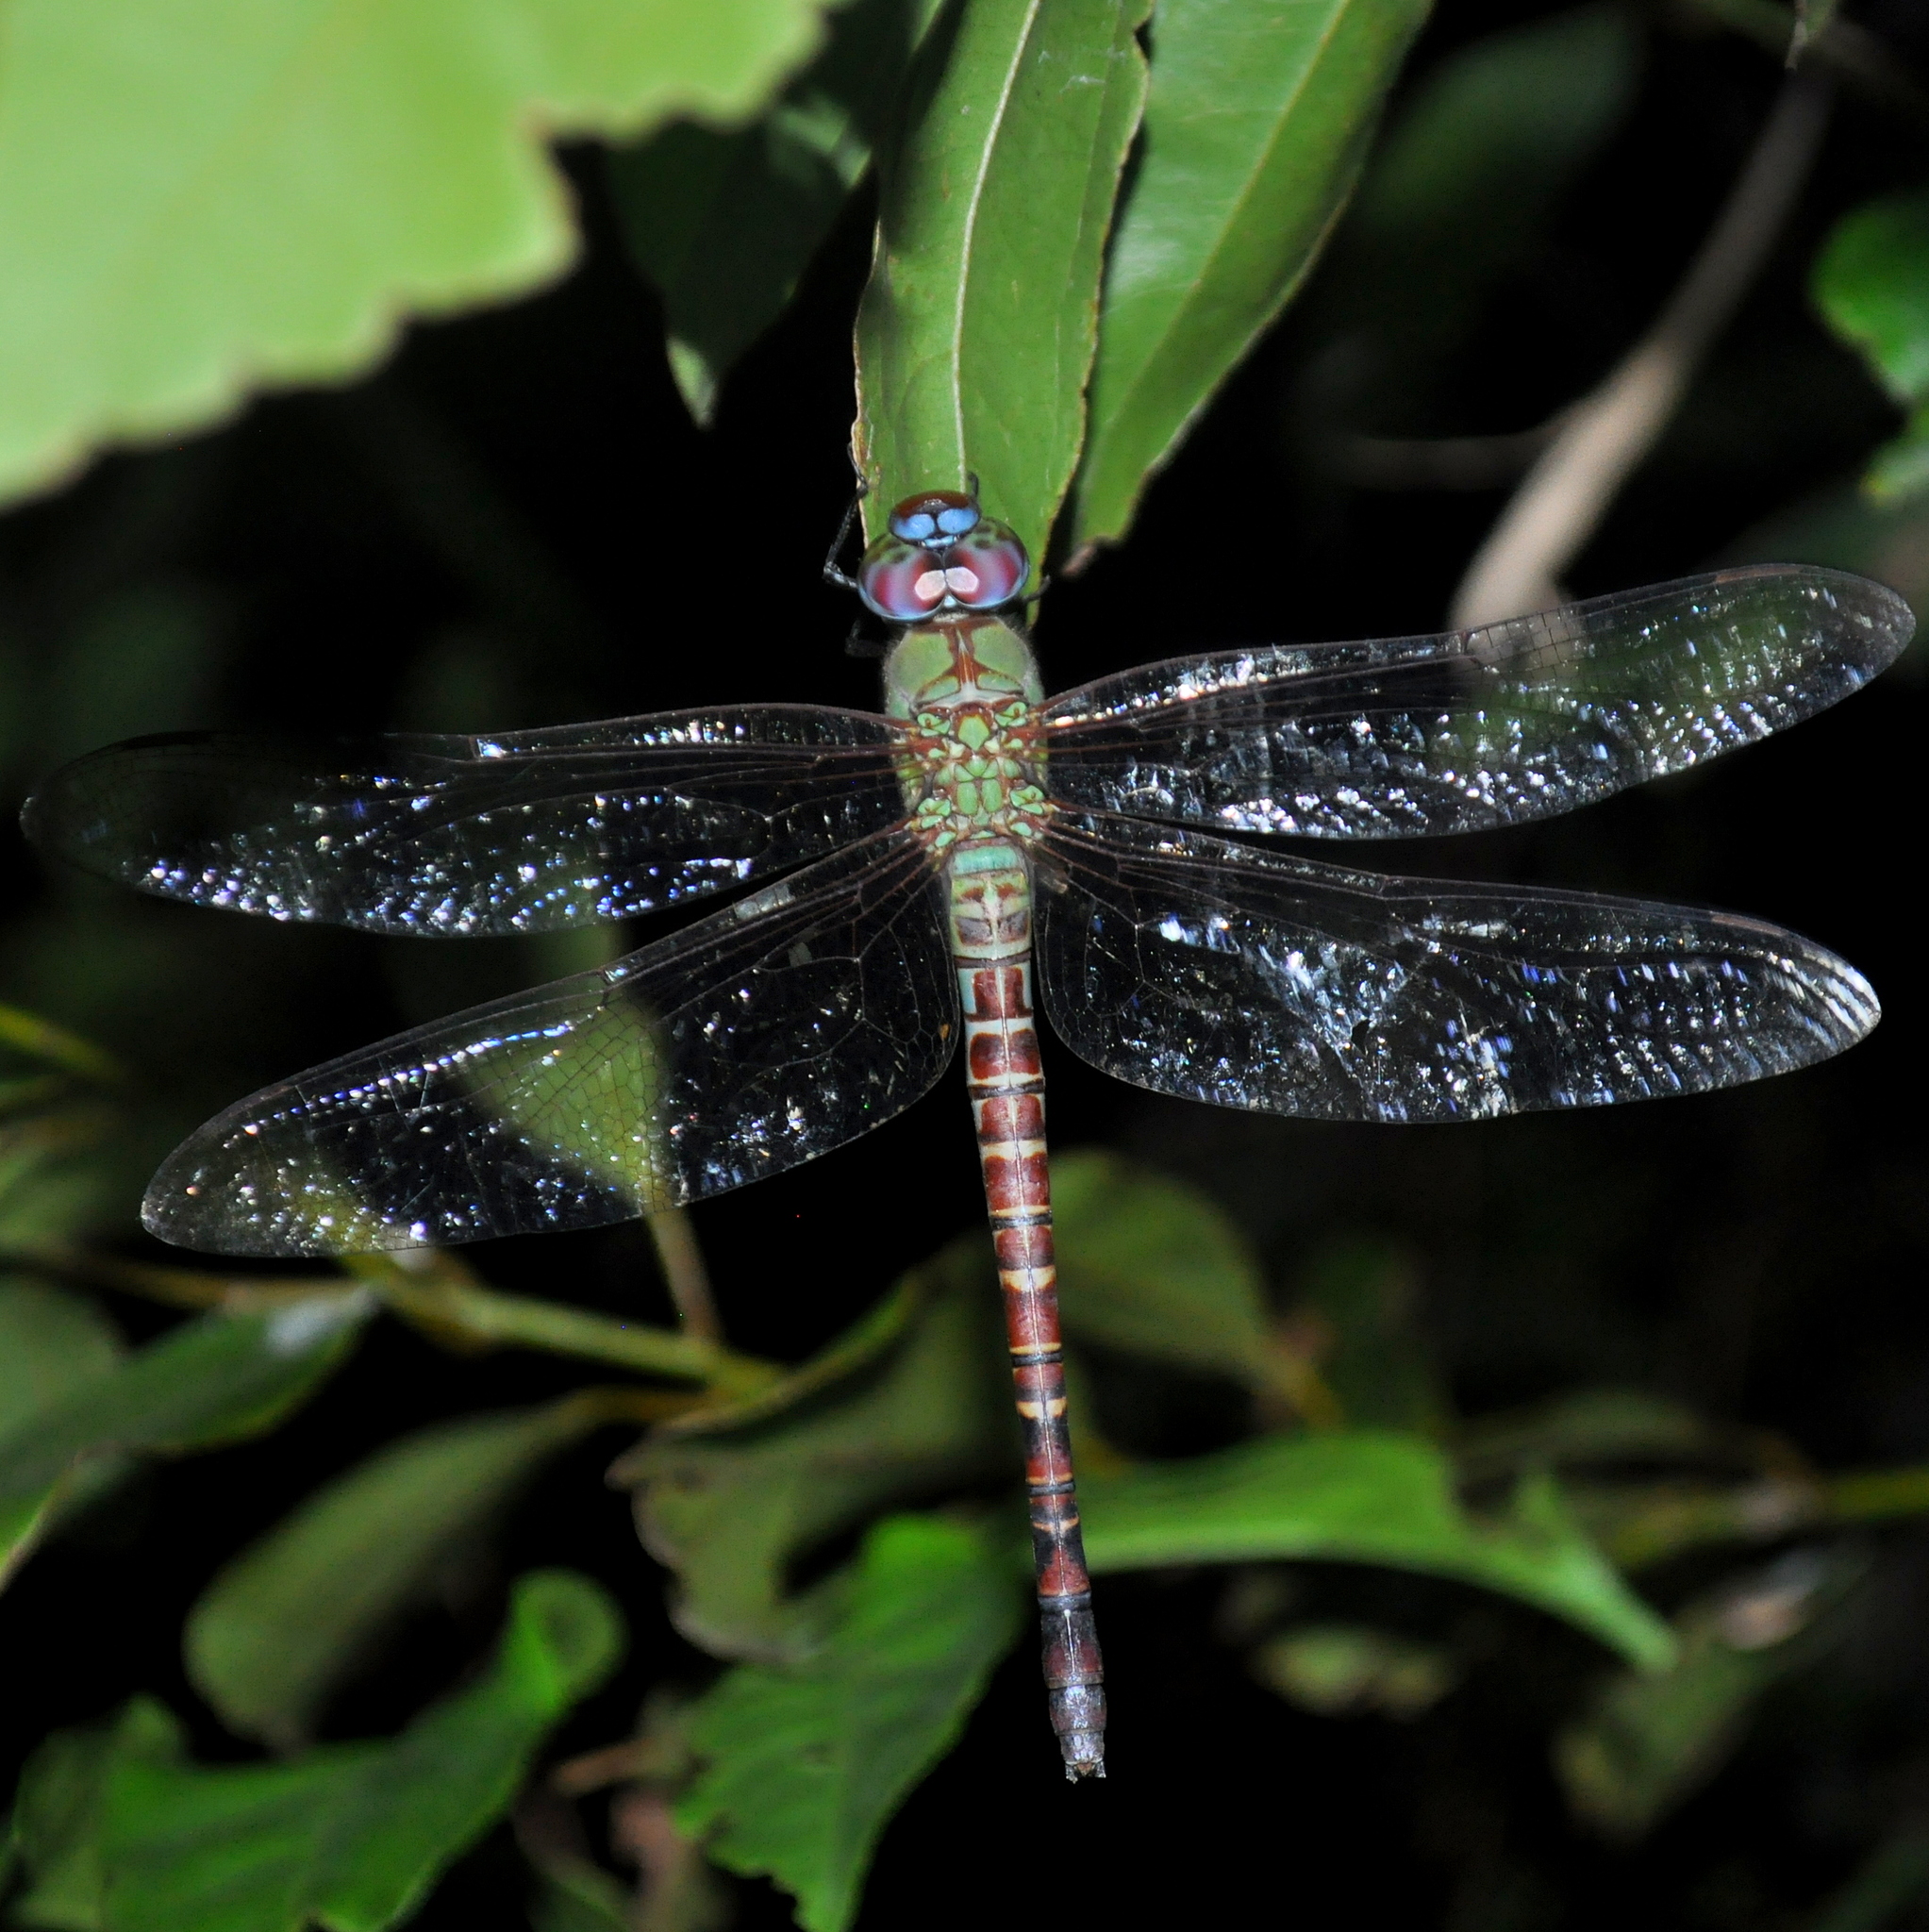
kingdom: Animalia
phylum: Arthropoda
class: Insecta
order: Odonata
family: Aeshnidae
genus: Coryphaeschna
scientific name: Coryphaeschna perrensi
